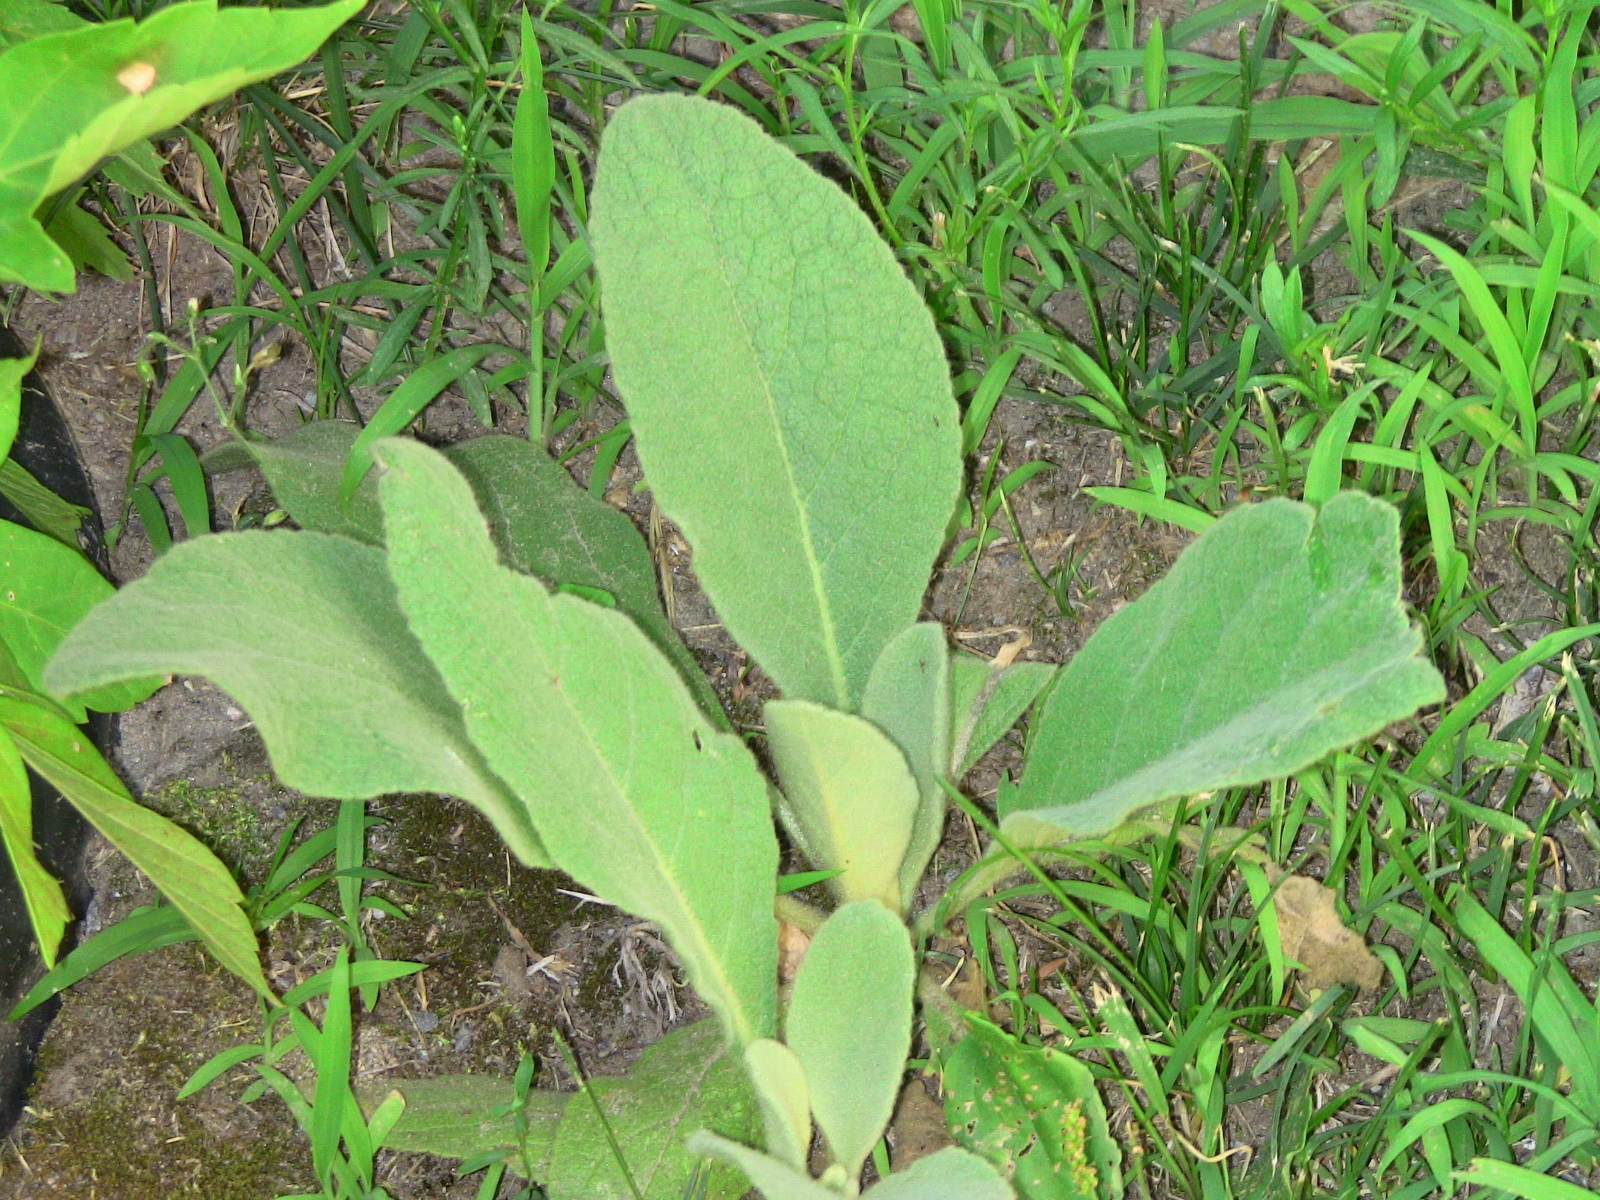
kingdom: Plantae
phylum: Tracheophyta
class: Magnoliopsida
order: Lamiales
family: Scrophulariaceae
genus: Verbascum
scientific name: Verbascum thapsus
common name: Common mullein
